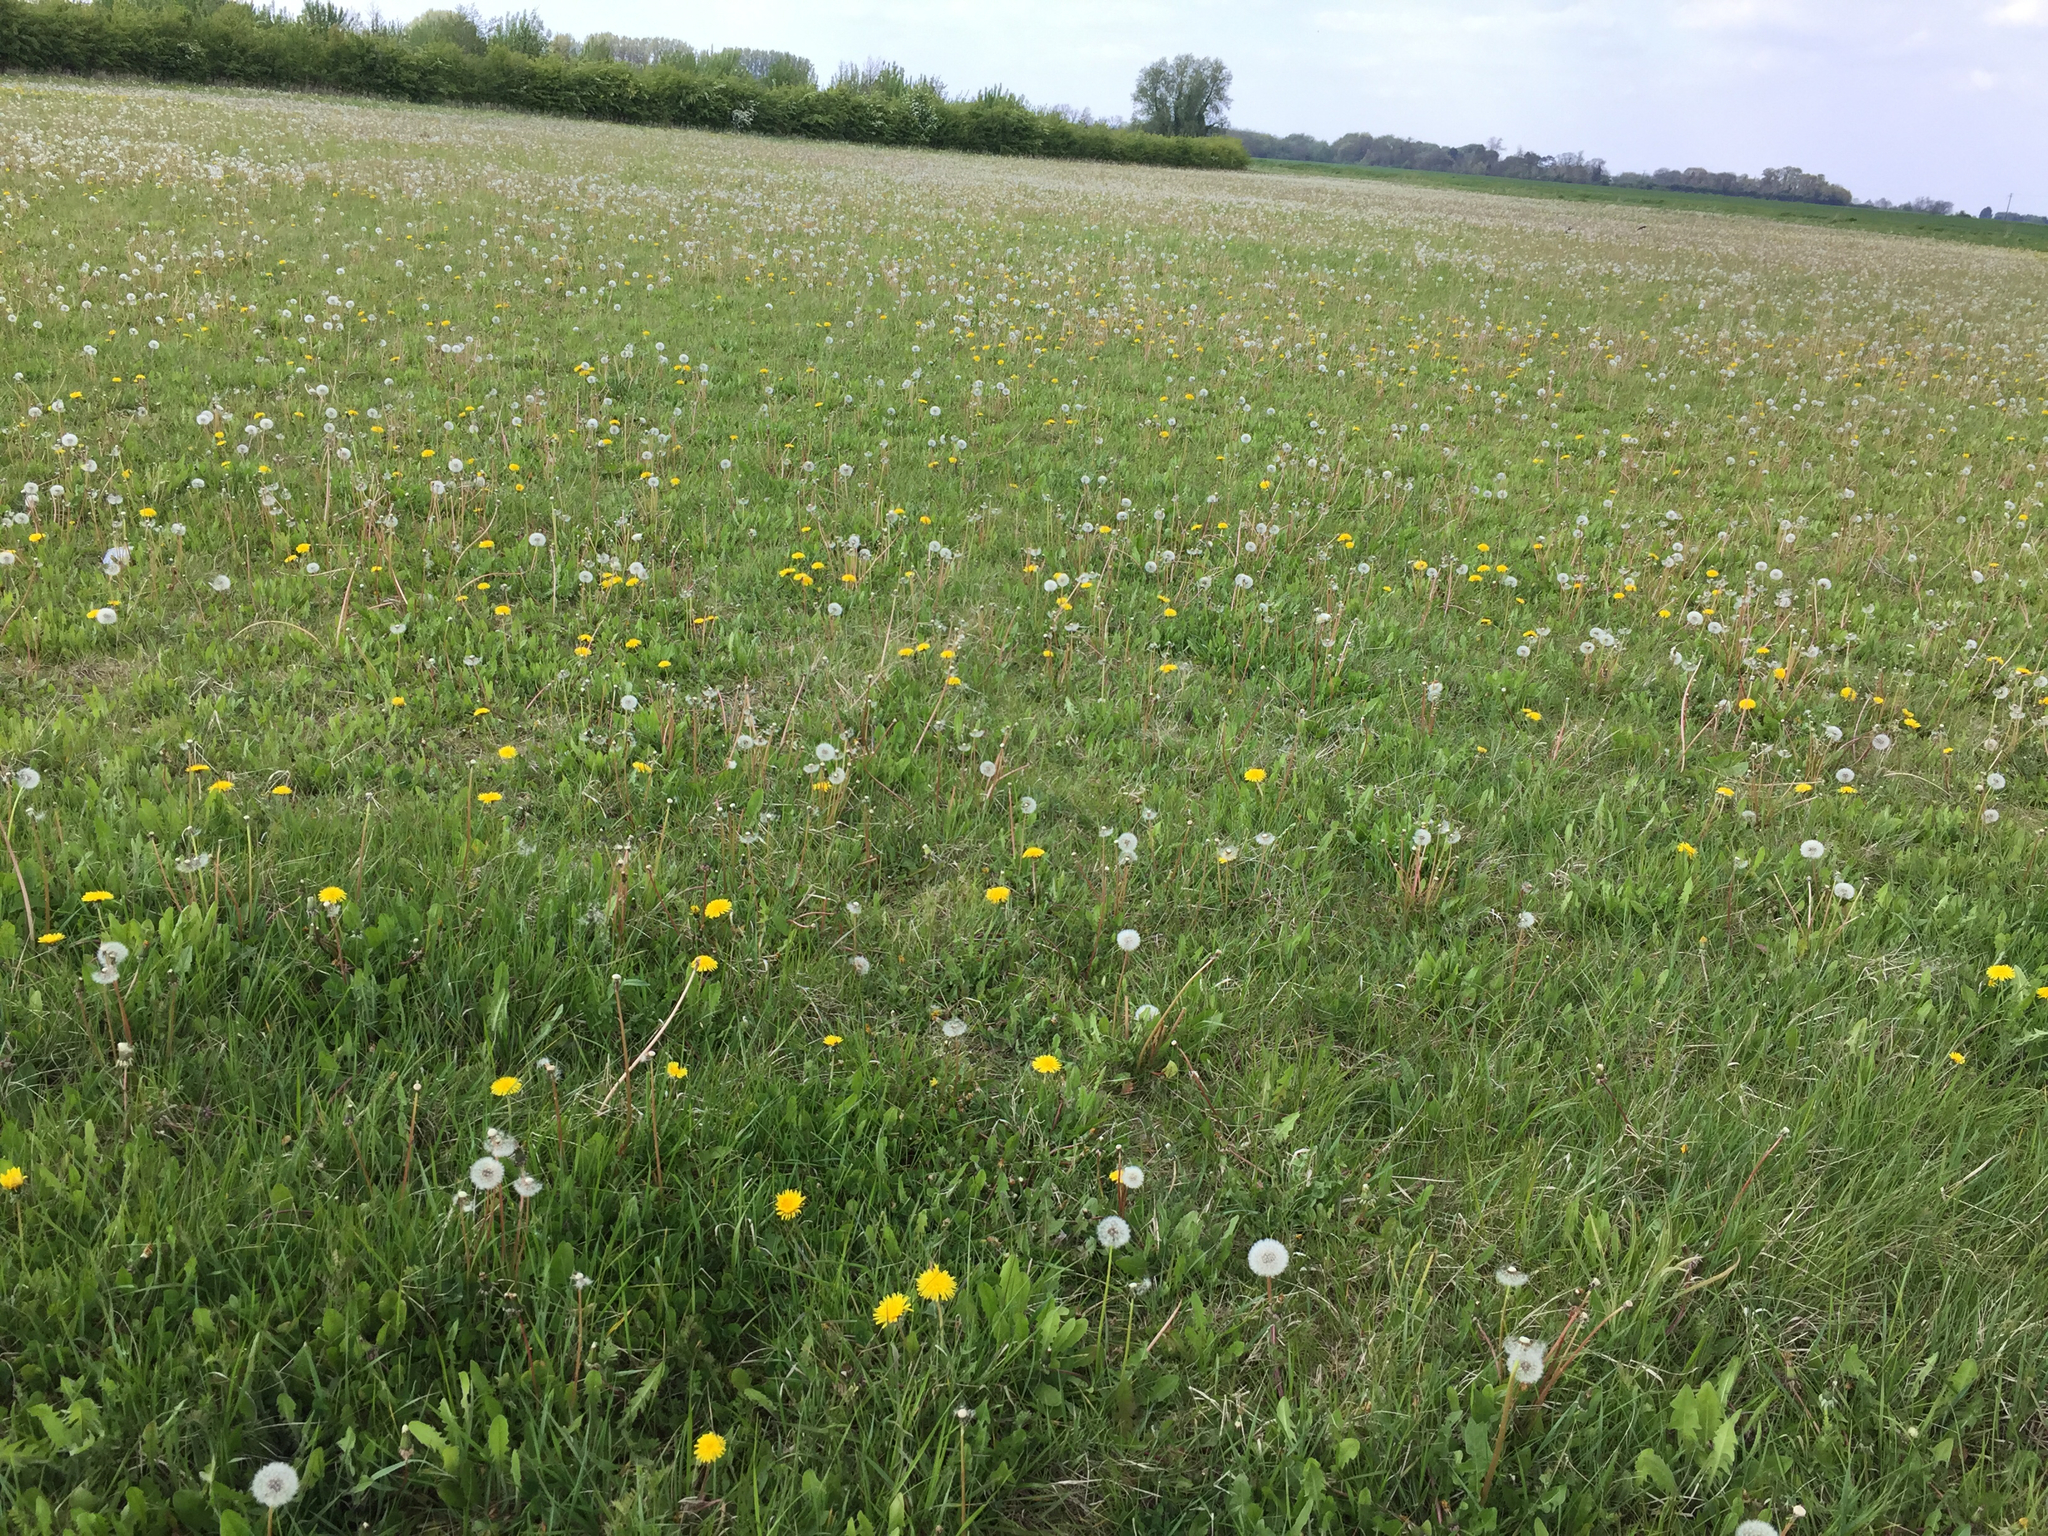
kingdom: Plantae
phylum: Tracheophyta
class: Magnoliopsida
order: Asterales
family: Asteraceae
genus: Taraxacum
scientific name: Taraxacum officinale
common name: Common dandelion
